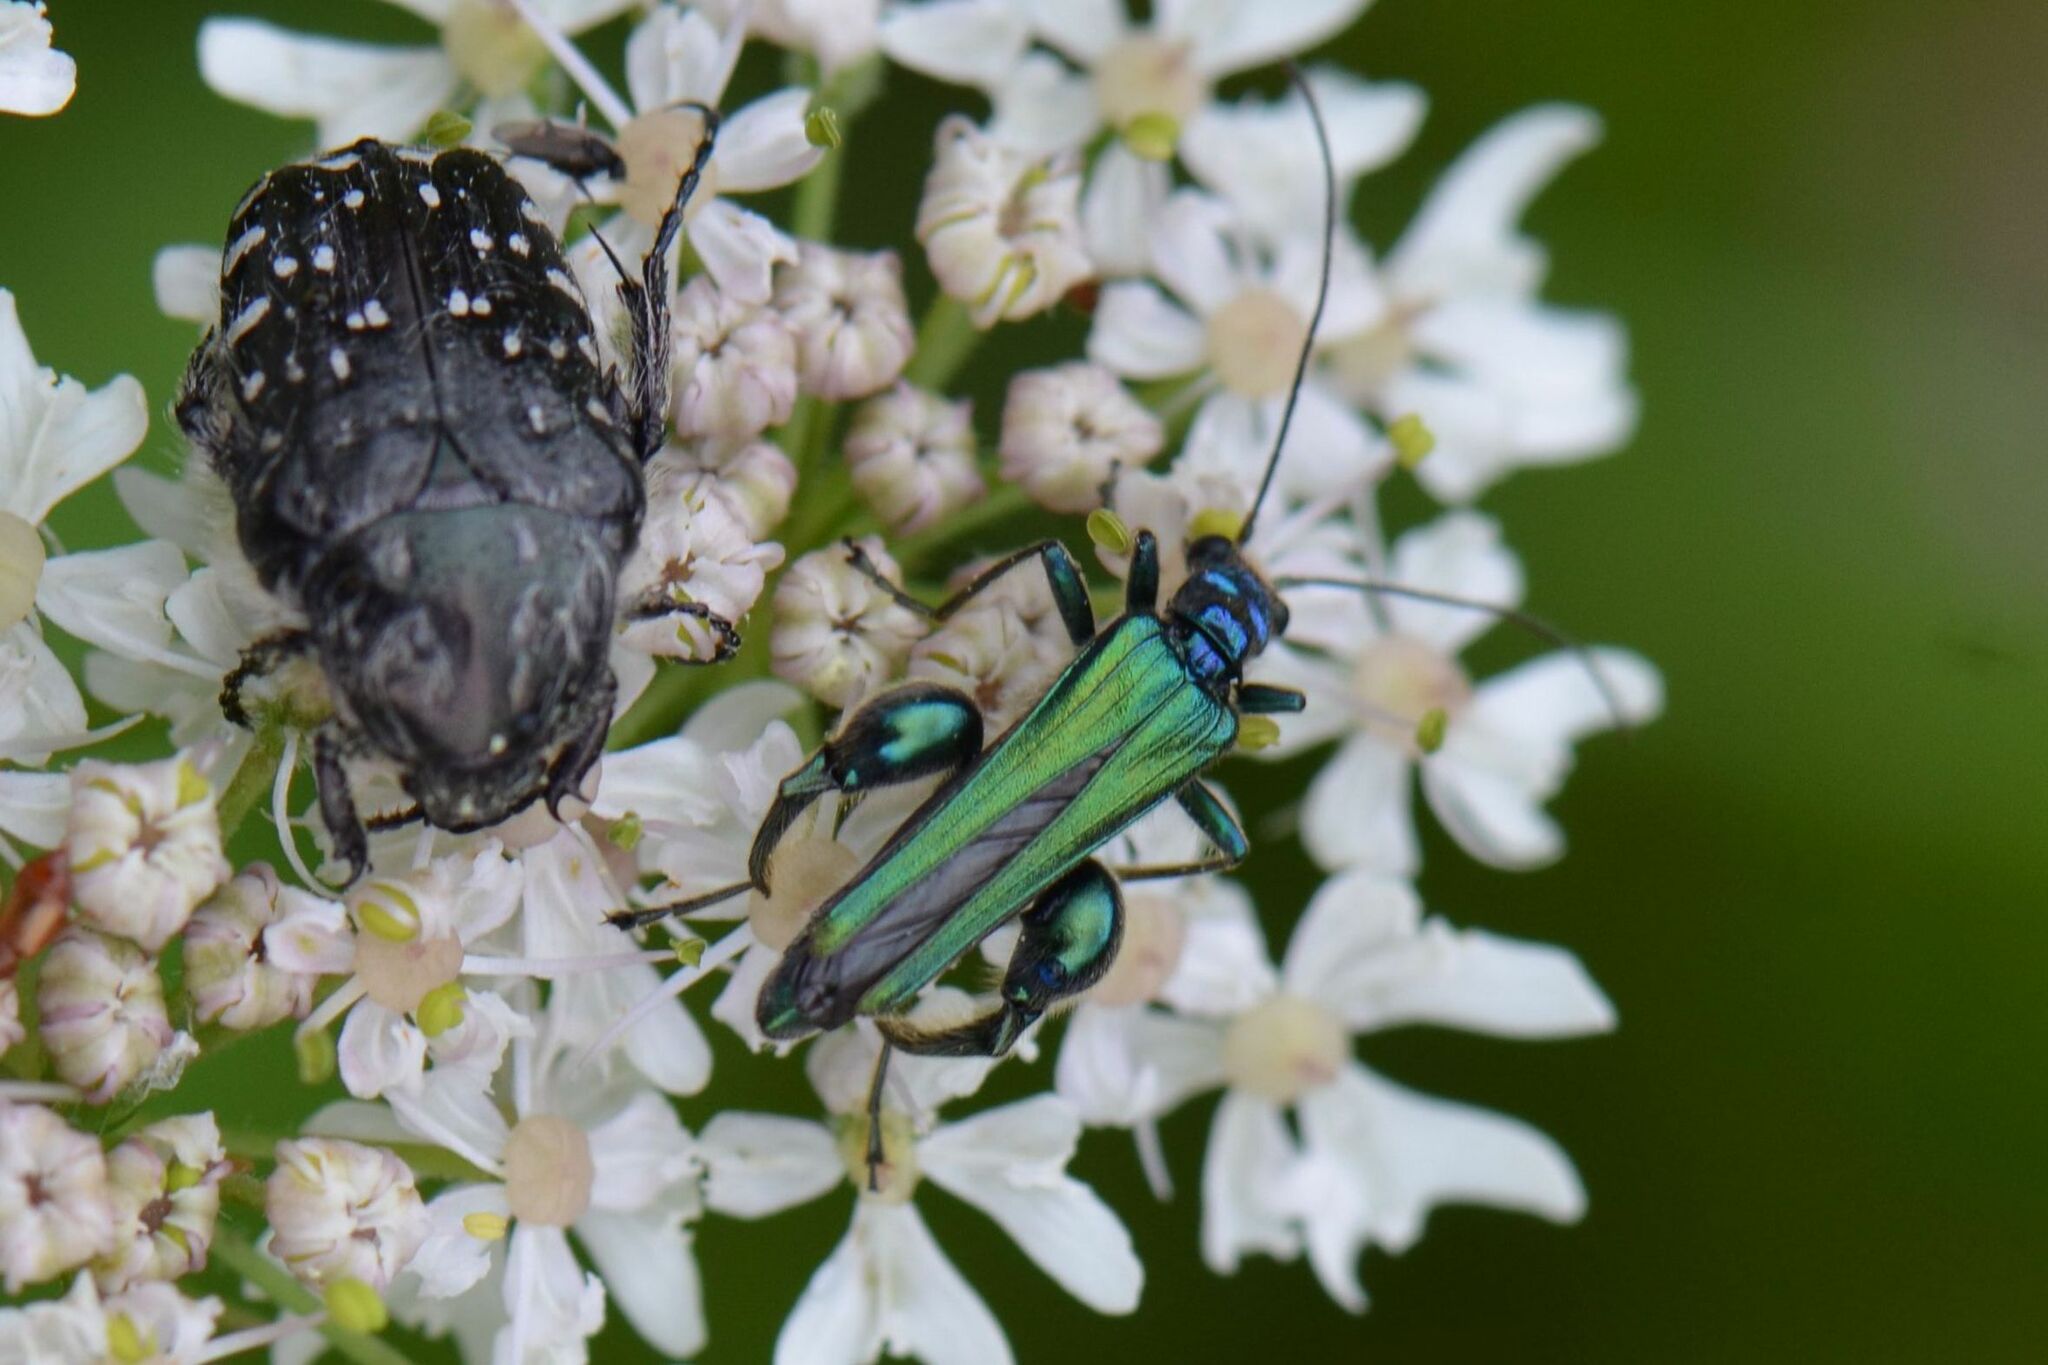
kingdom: Animalia
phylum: Arthropoda
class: Insecta
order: Coleoptera
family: Oedemeridae
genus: Oedemera
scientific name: Oedemera nobilis
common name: Swollen-thighed beetle
